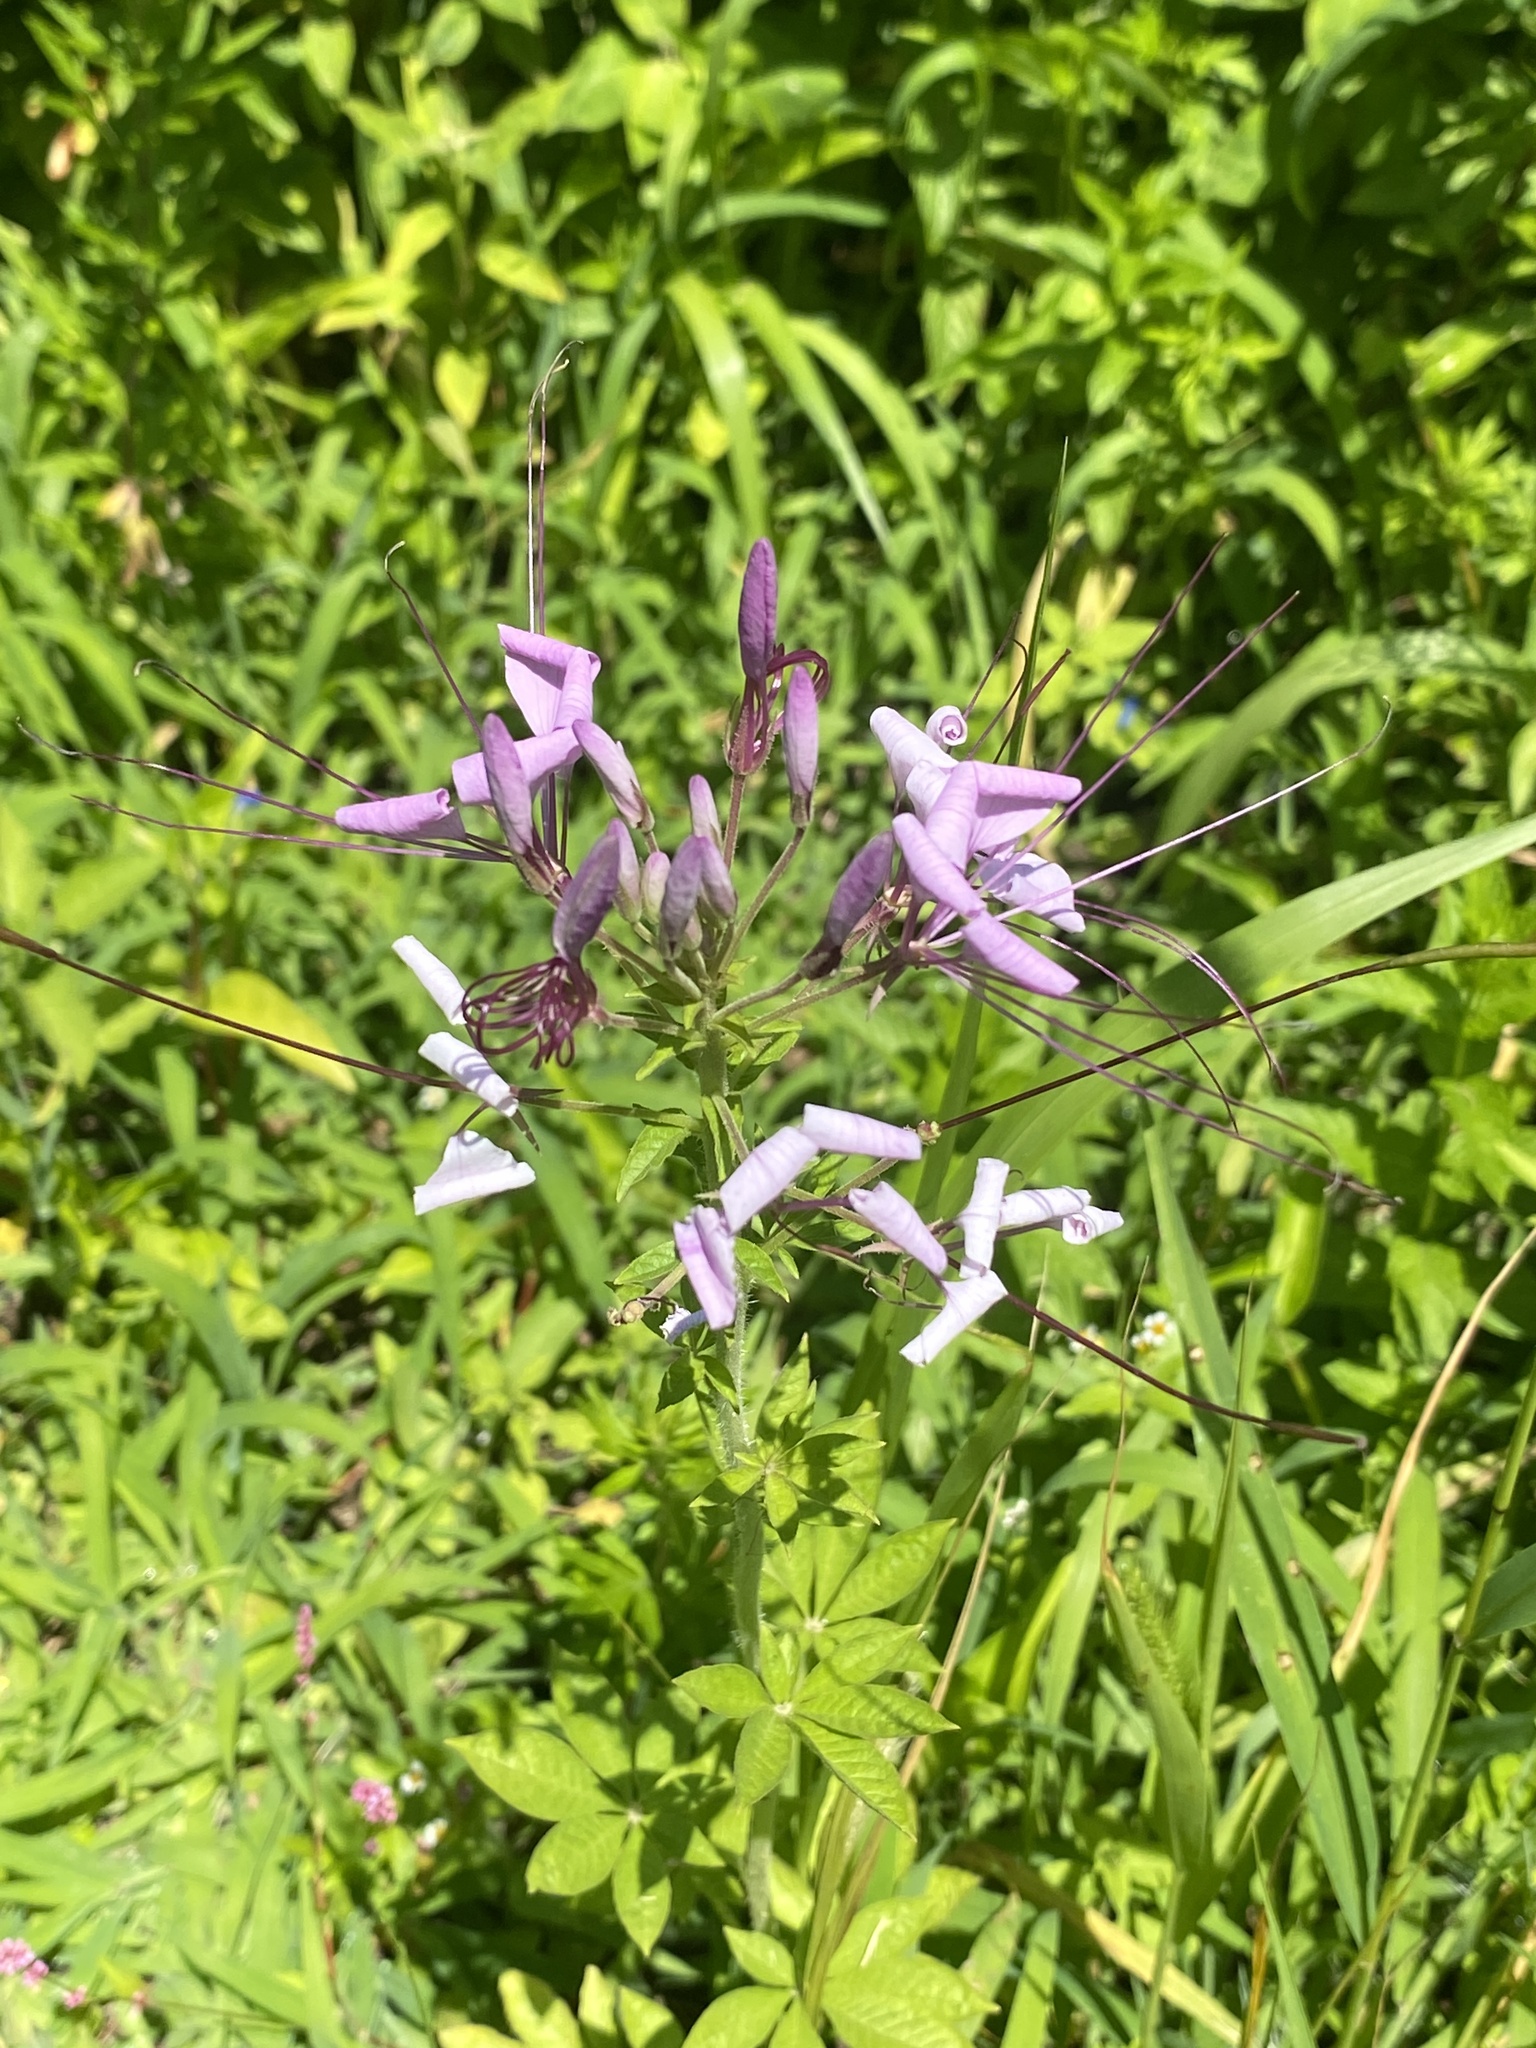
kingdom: Plantae
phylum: Tracheophyta
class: Magnoliopsida
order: Brassicales
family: Cleomaceae
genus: Tarenaya
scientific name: Tarenaya houtteana
